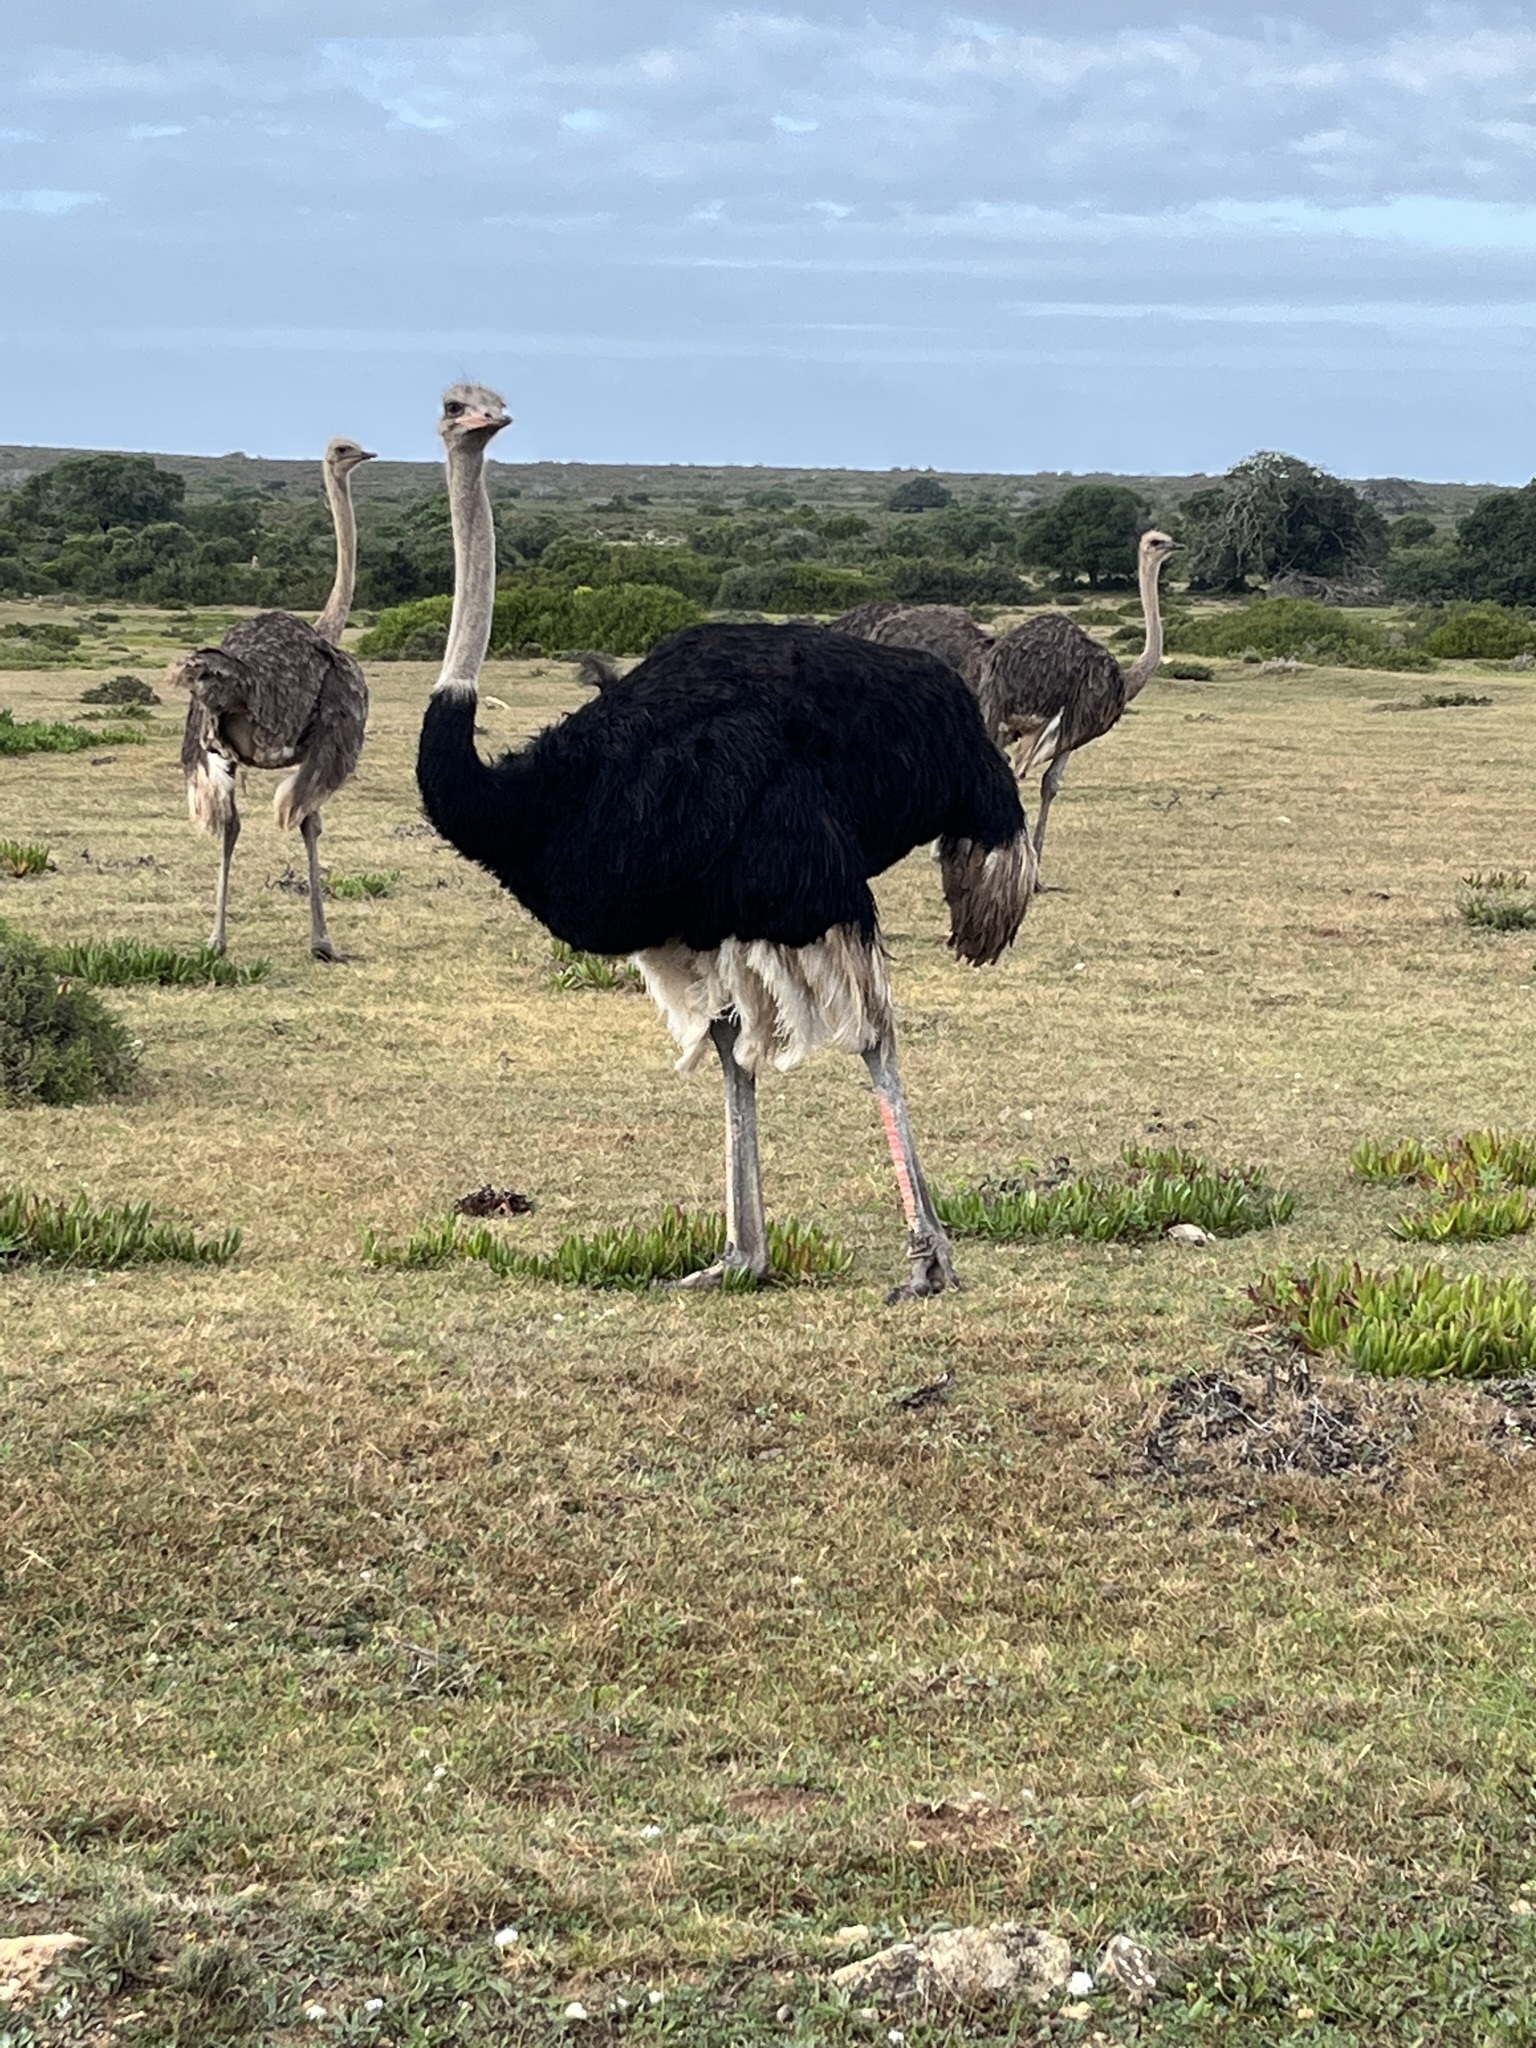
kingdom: Animalia
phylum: Chordata
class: Aves
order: Struthioniformes
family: Struthionidae
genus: Struthio
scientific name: Struthio camelus
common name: Common ostrich
